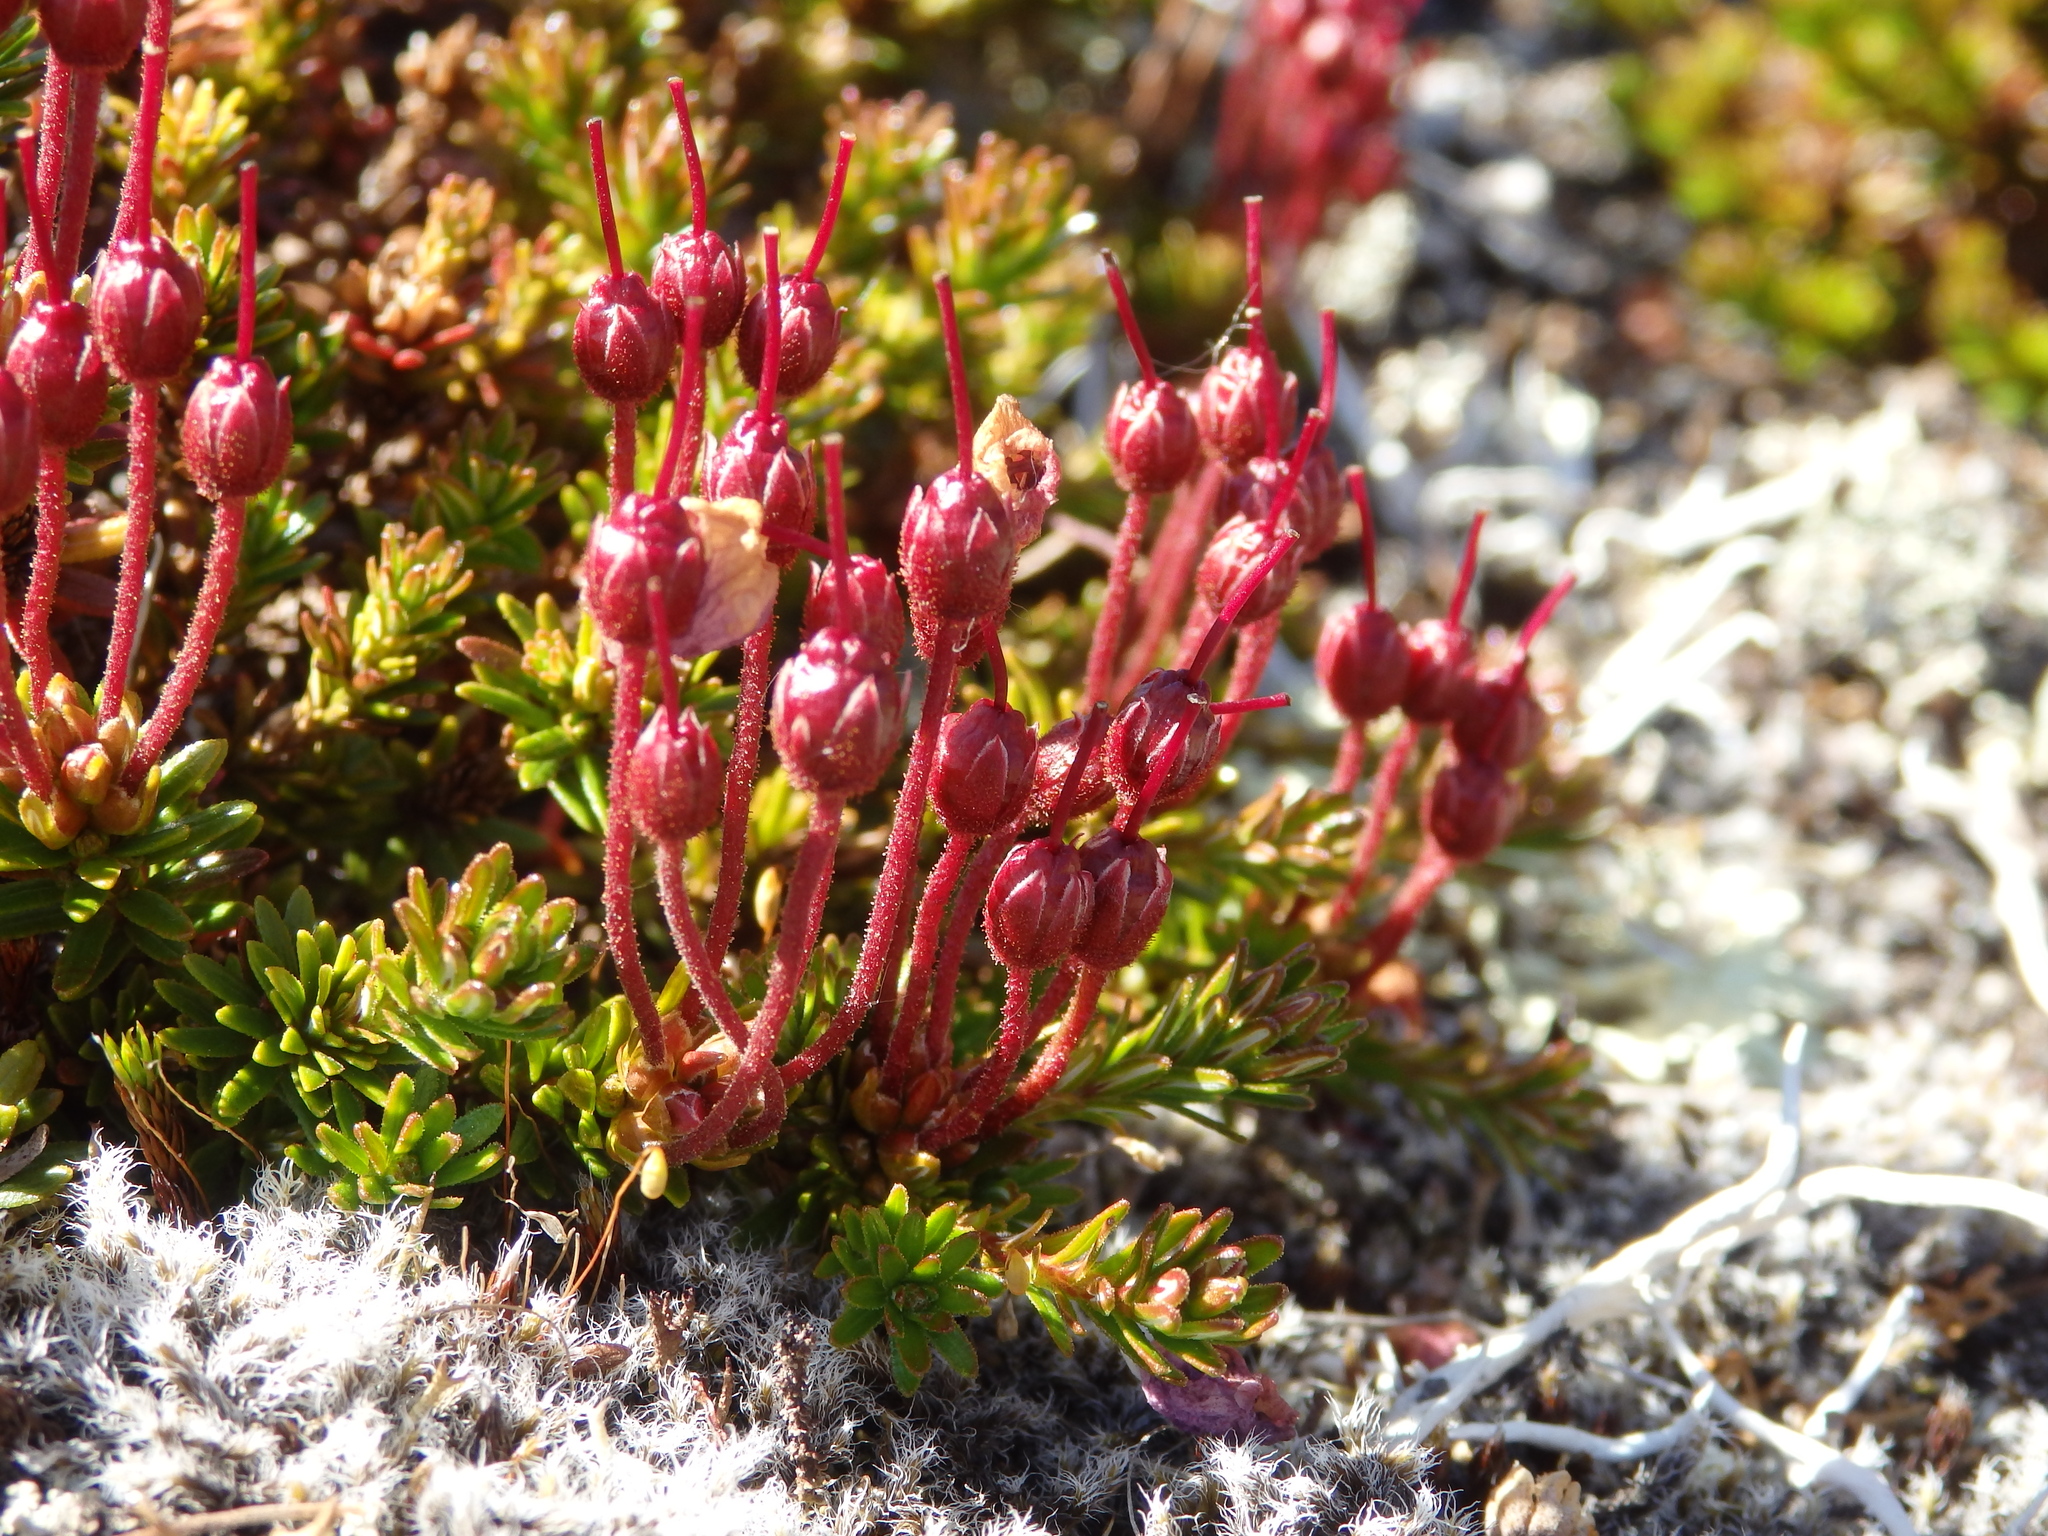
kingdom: Plantae
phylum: Tracheophyta
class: Magnoliopsida
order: Ericales
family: Ericaceae
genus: Phyllodoce
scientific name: Phyllodoce caerulea
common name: Blue heath
